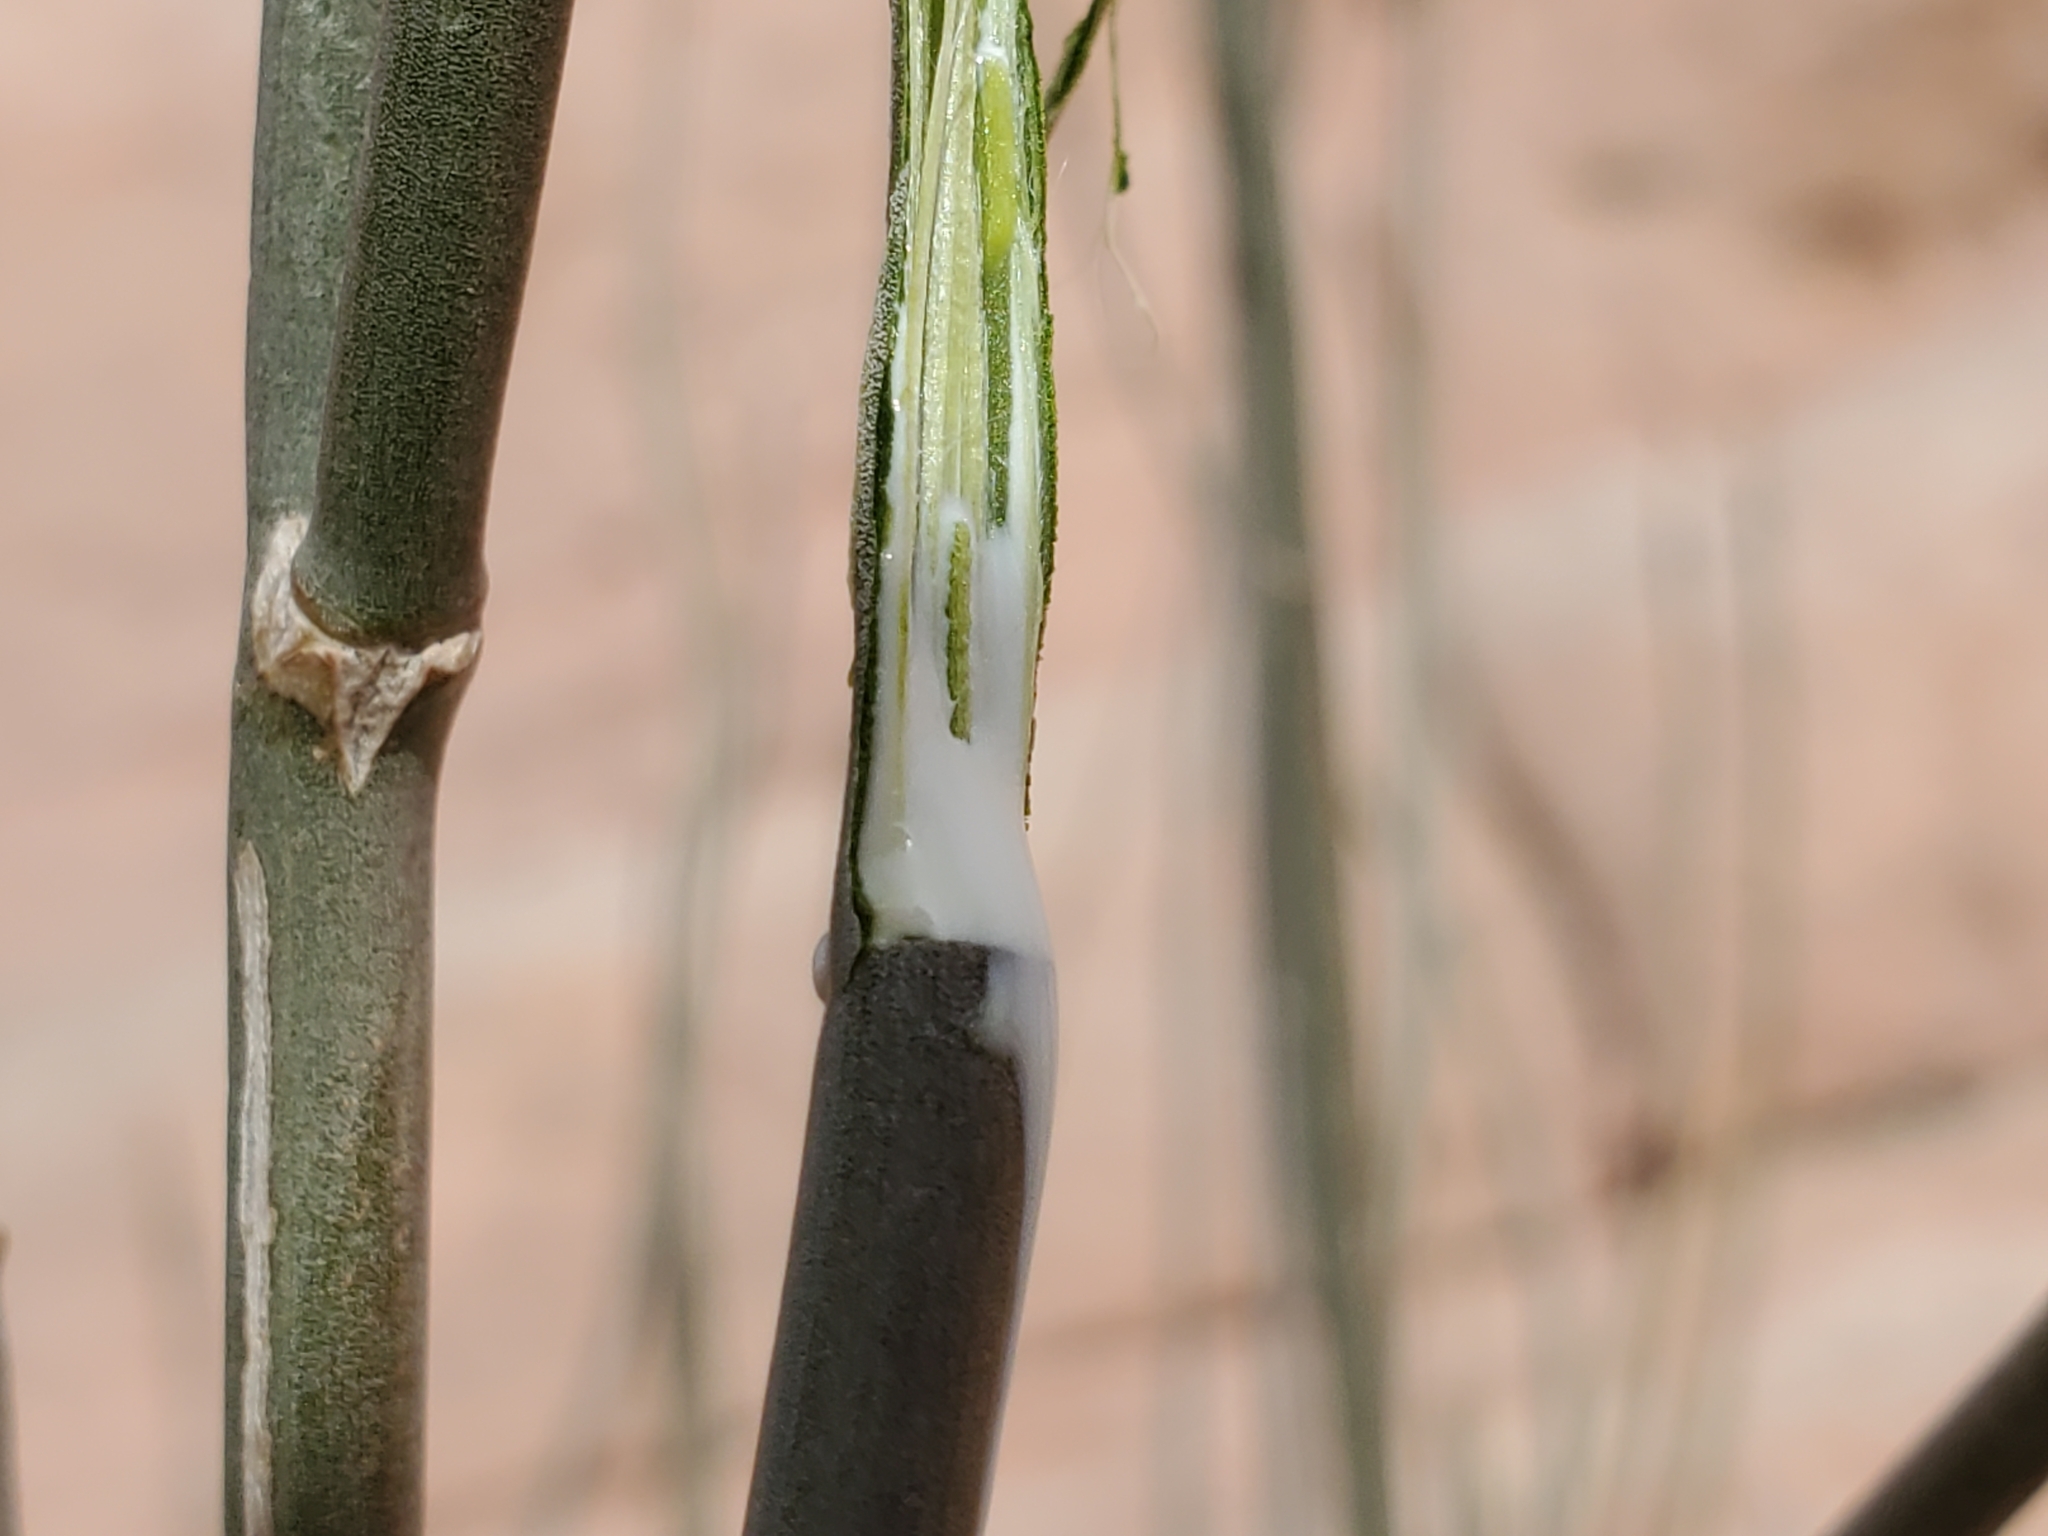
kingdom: Plantae
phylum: Tracheophyta
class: Magnoliopsida
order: Gentianales
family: Apocynaceae
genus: Asclepias
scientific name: Asclepias subulata
